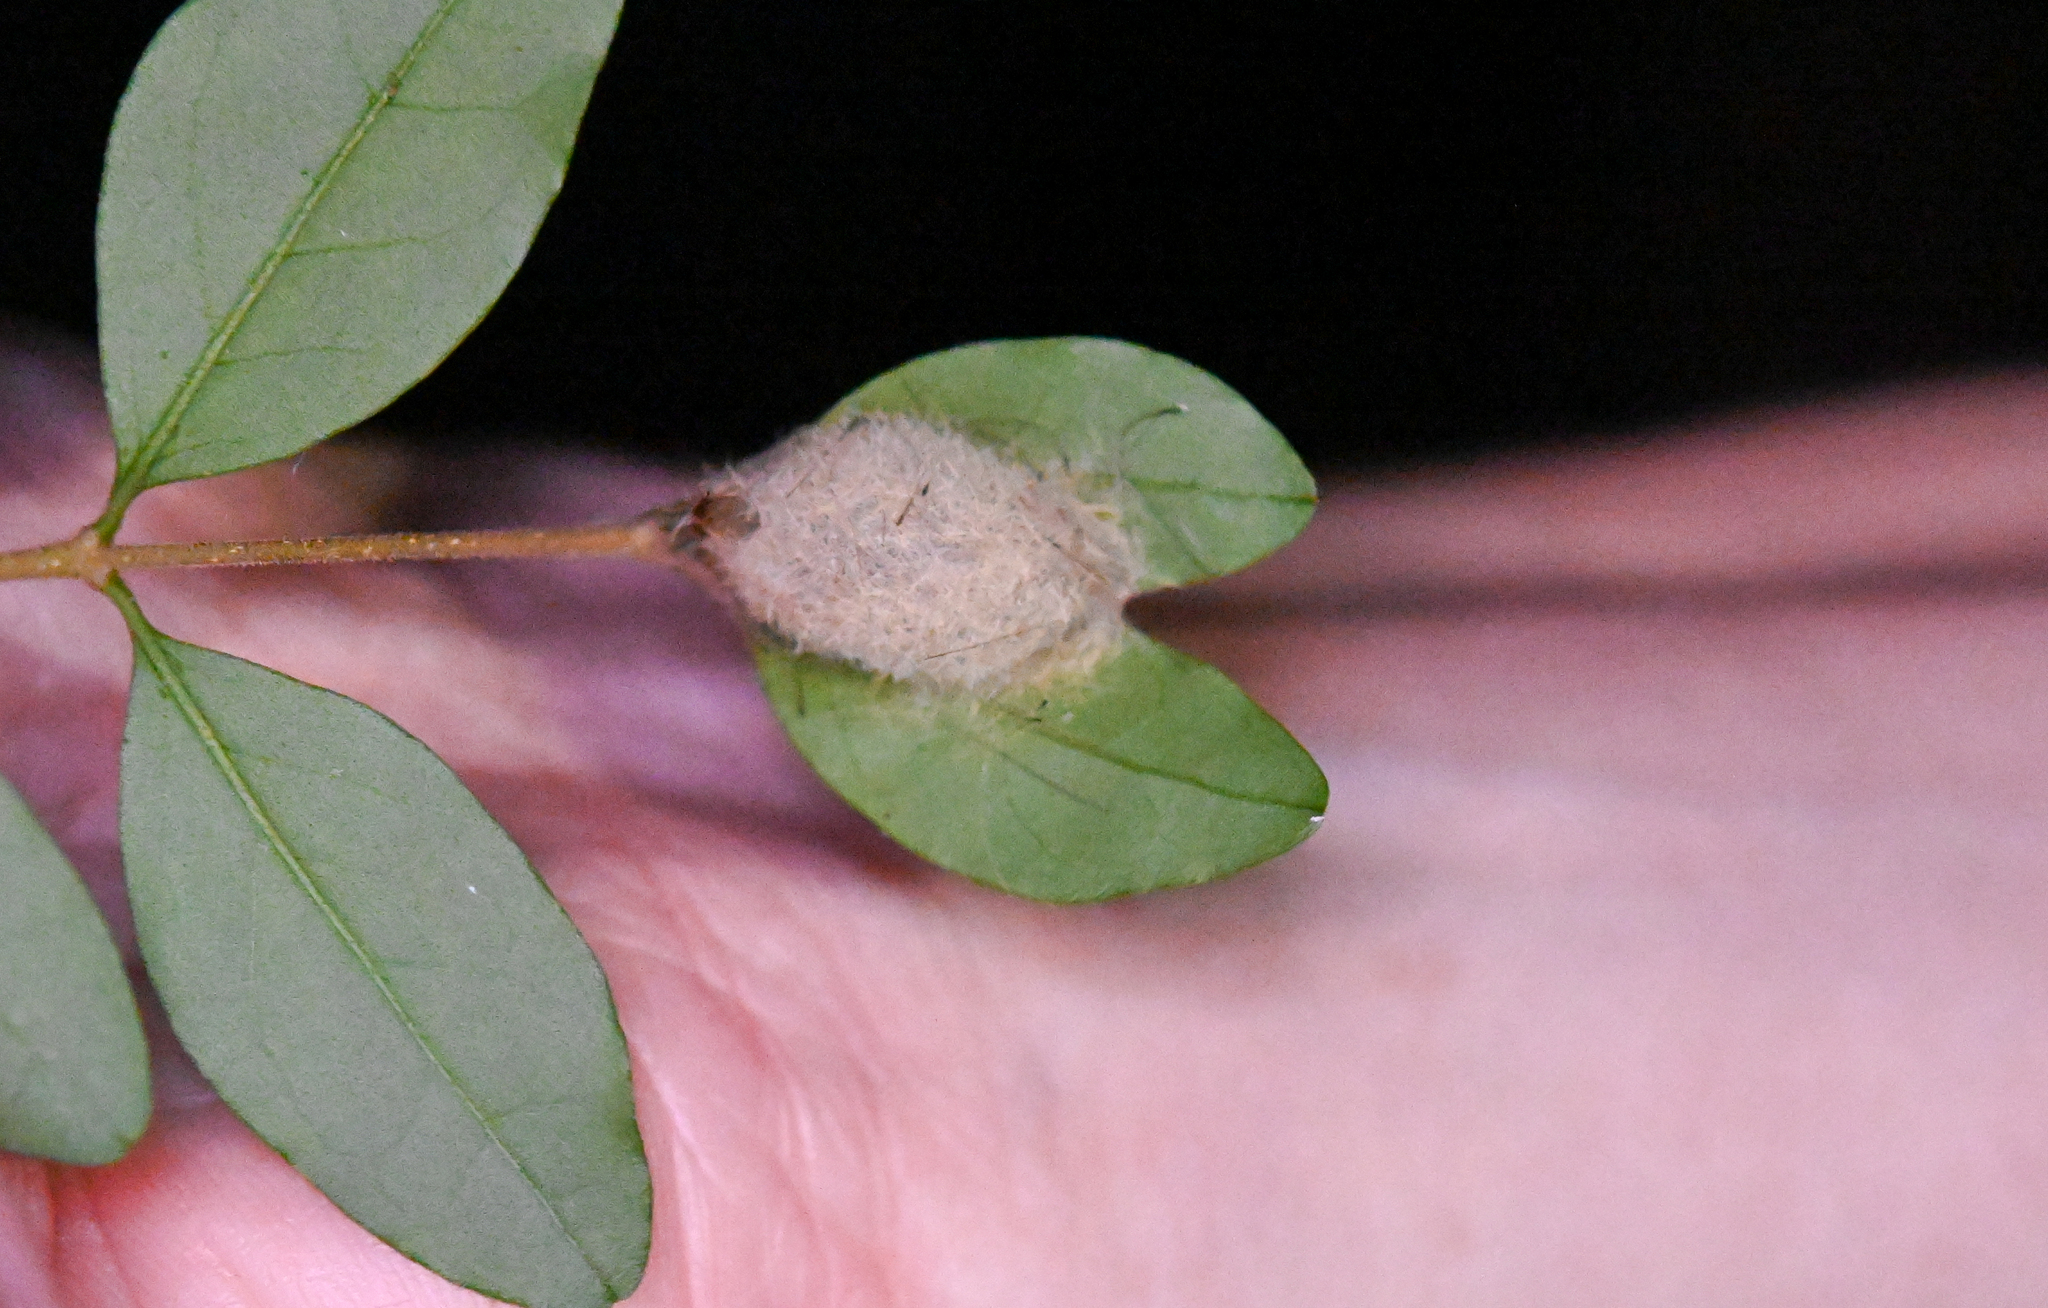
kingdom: Animalia
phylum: Arthropoda
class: Insecta
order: Lepidoptera
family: Erebidae
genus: Orgyia
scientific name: Orgyia leucostigma
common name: White-marked tussock moth
